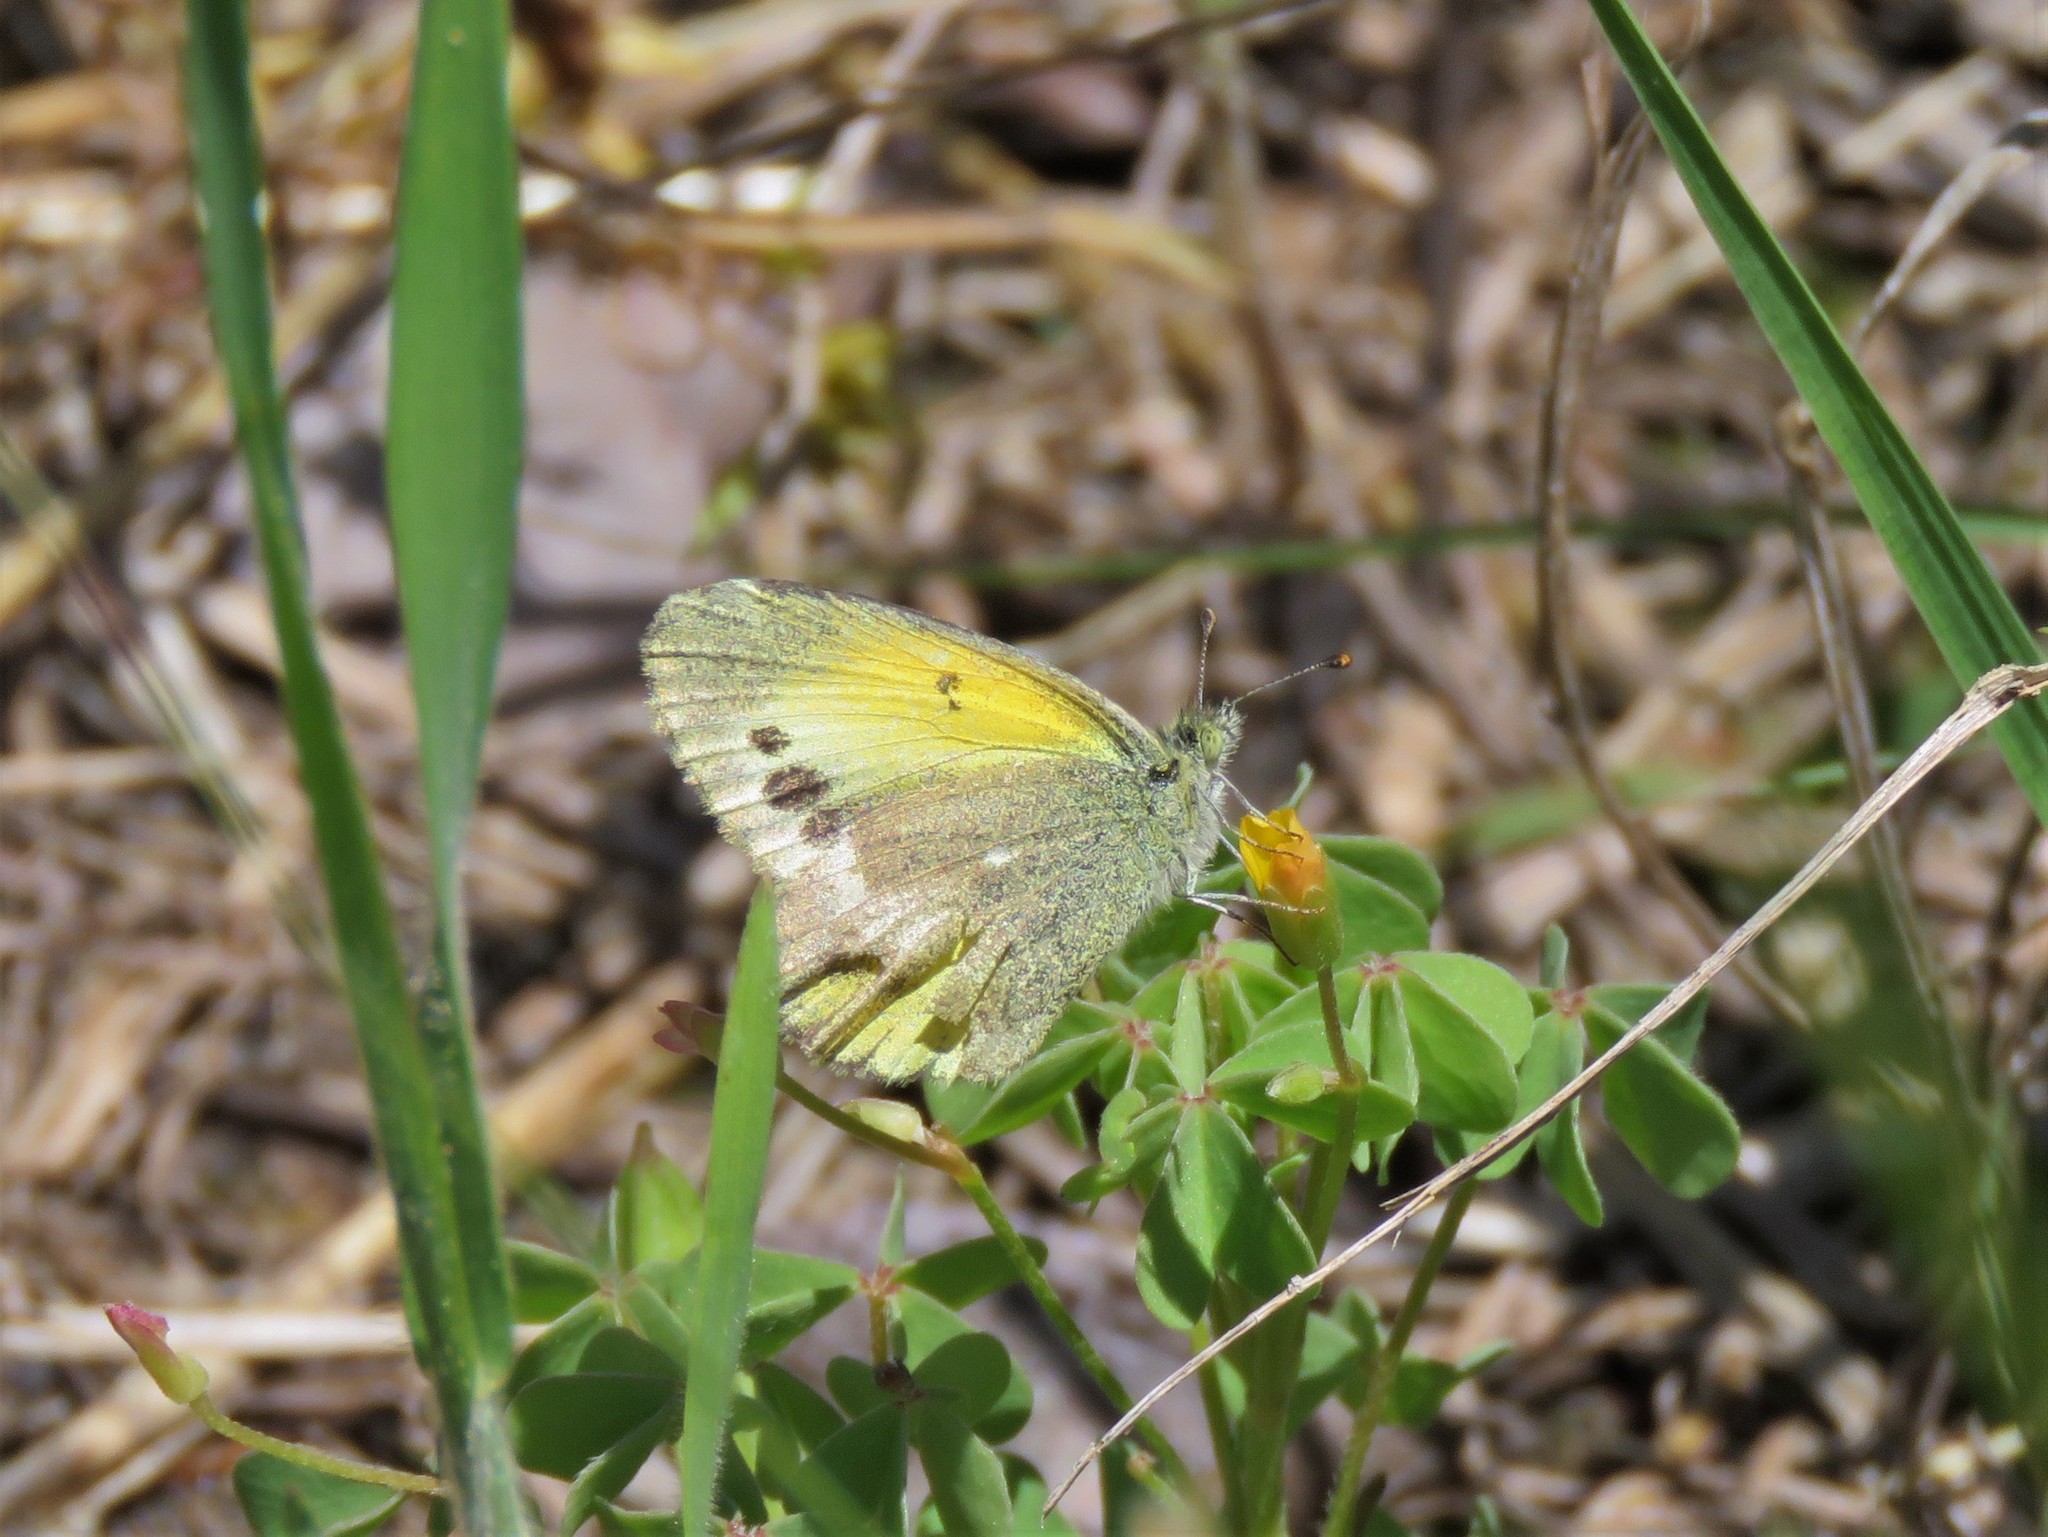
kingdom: Animalia
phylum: Arthropoda
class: Insecta
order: Lepidoptera
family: Pieridae
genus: Nathalis
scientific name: Nathalis iole
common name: Dainty sulphur
